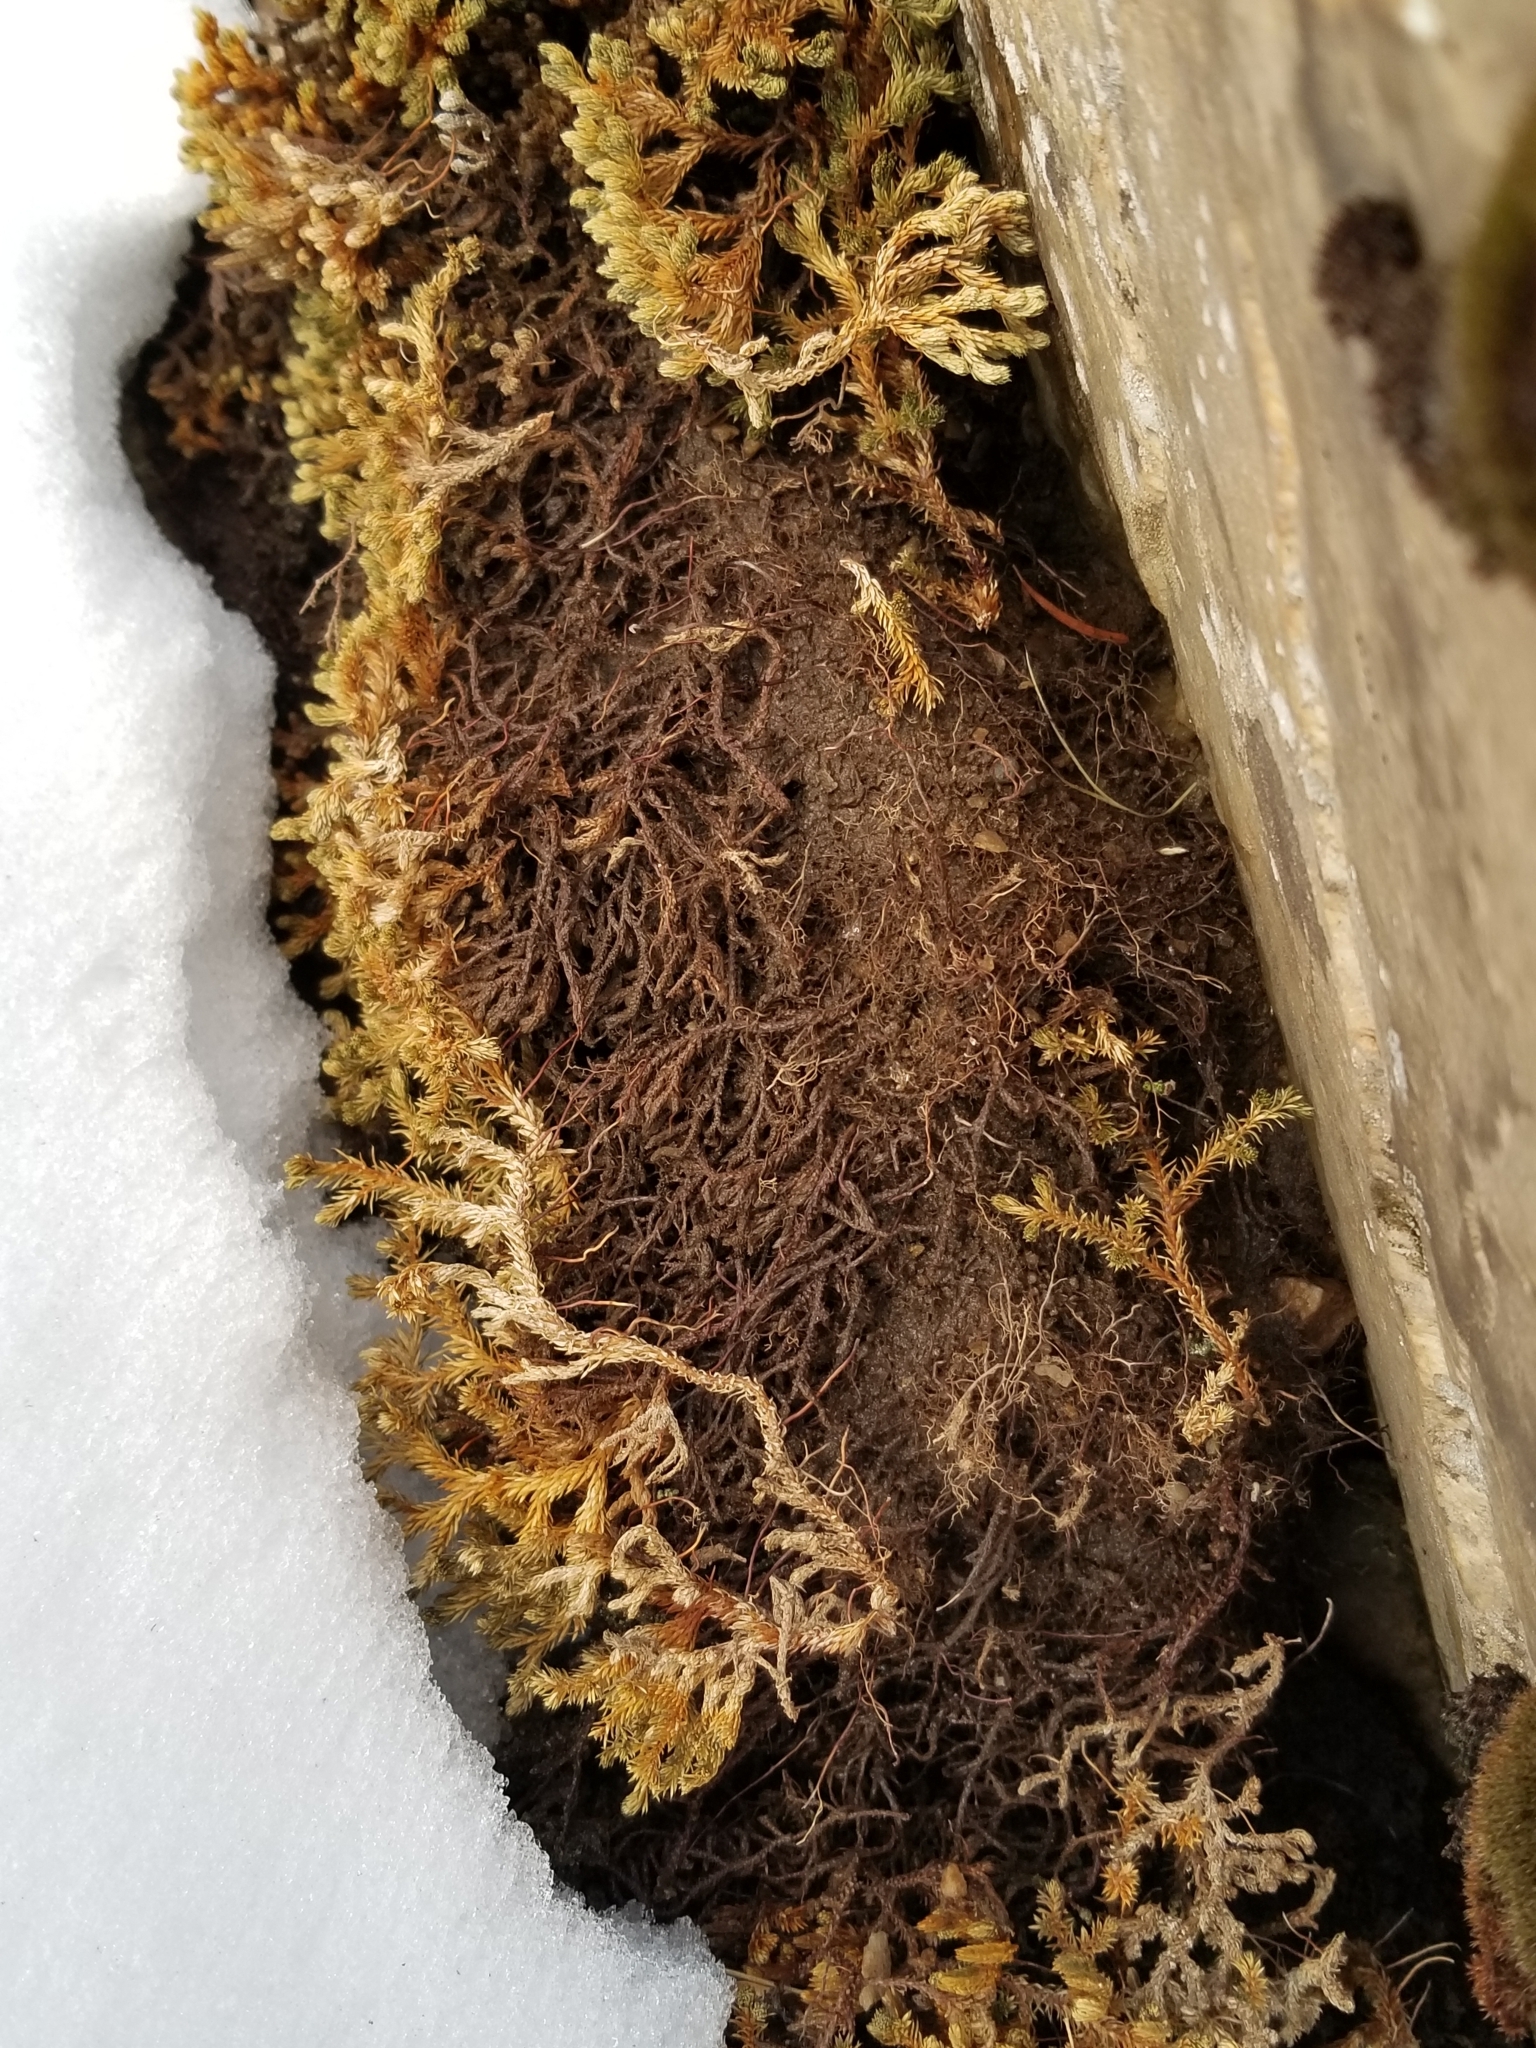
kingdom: Plantae
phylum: Tracheophyta
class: Lycopodiopsida
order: Selaginellales
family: Selaginellaceae
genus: Selaginella
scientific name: Selaginella watsonii
